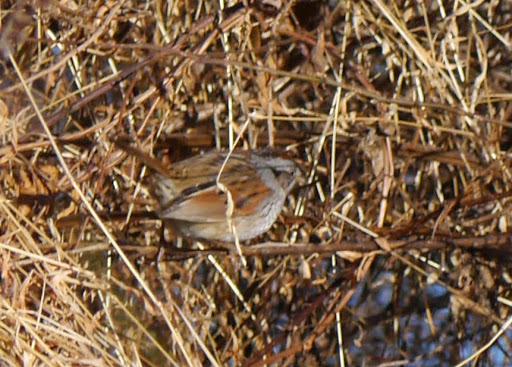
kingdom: Animalia
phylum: Chordata
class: Aves
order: Passeriformes
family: Passerellidae
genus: Melospiza
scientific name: Melospiza georgiana
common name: Swamp sparrow
